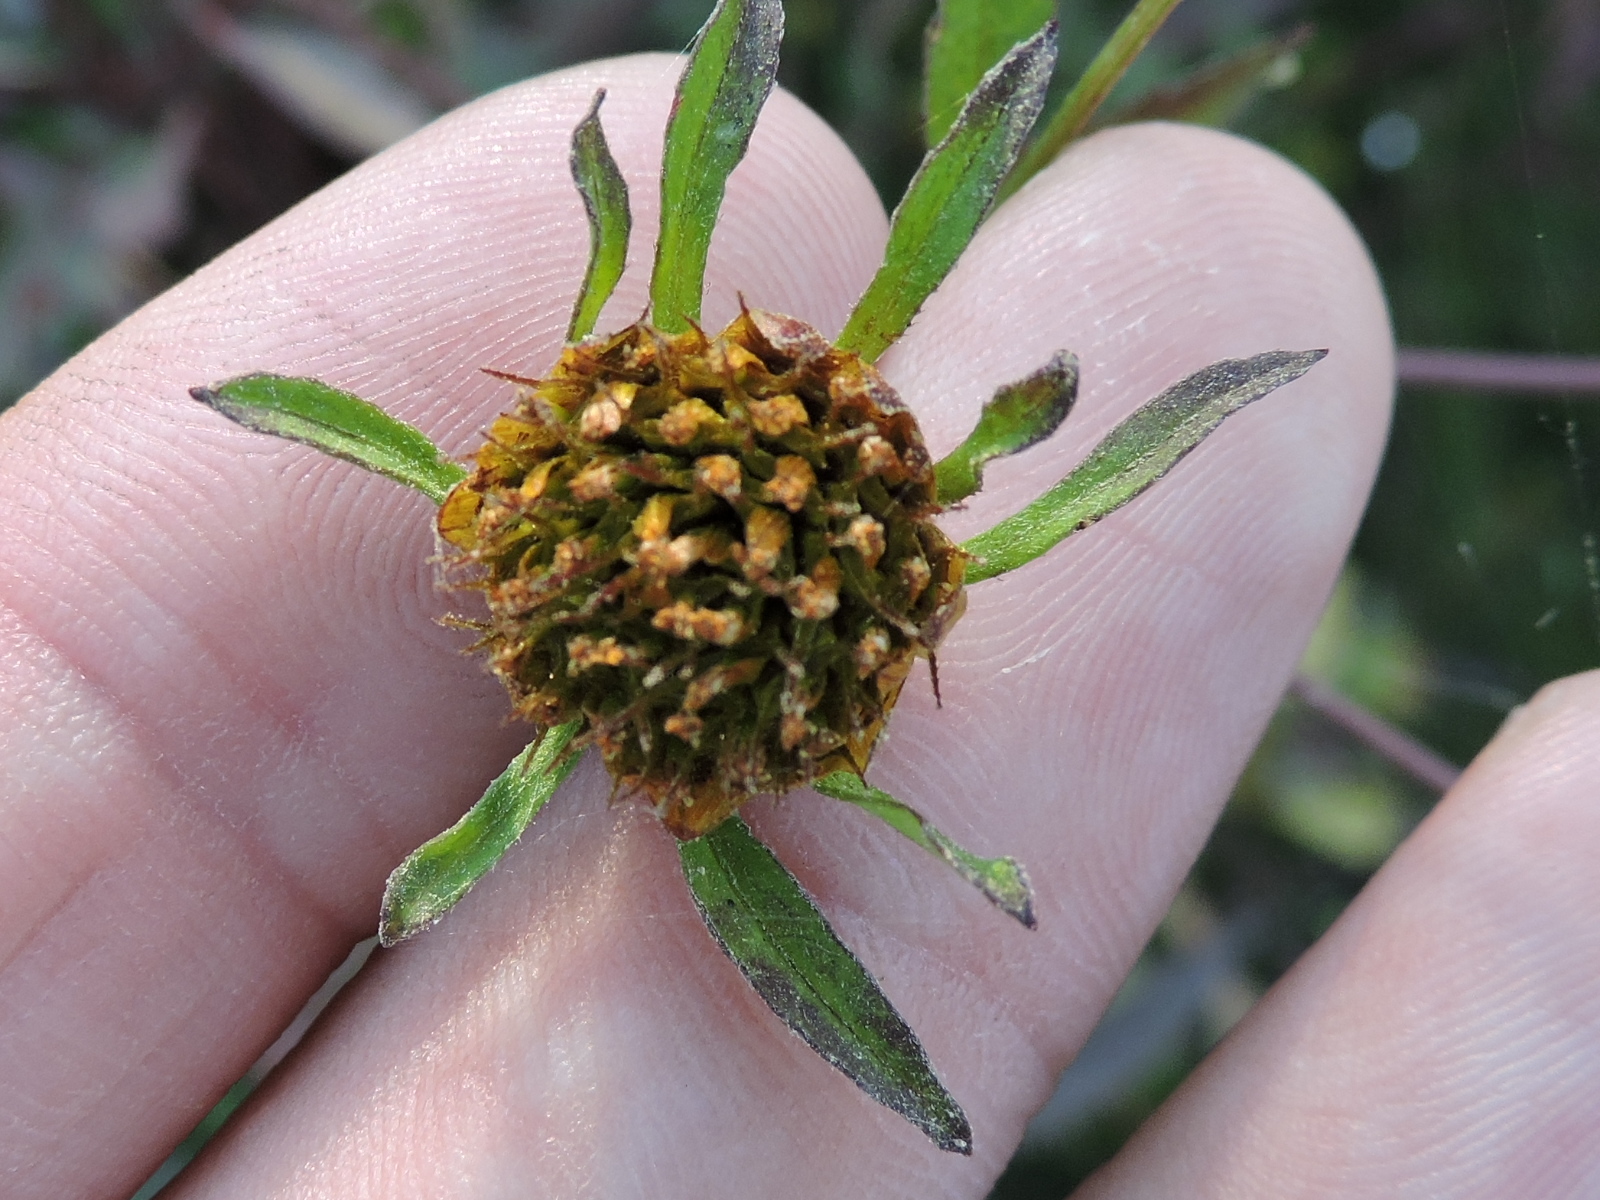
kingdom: Plantae
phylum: Tracheophyta
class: Magnoliopsida
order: Asterales
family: Asteraceae
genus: Bidens
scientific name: Bidens frondosa
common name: Beggarticks
